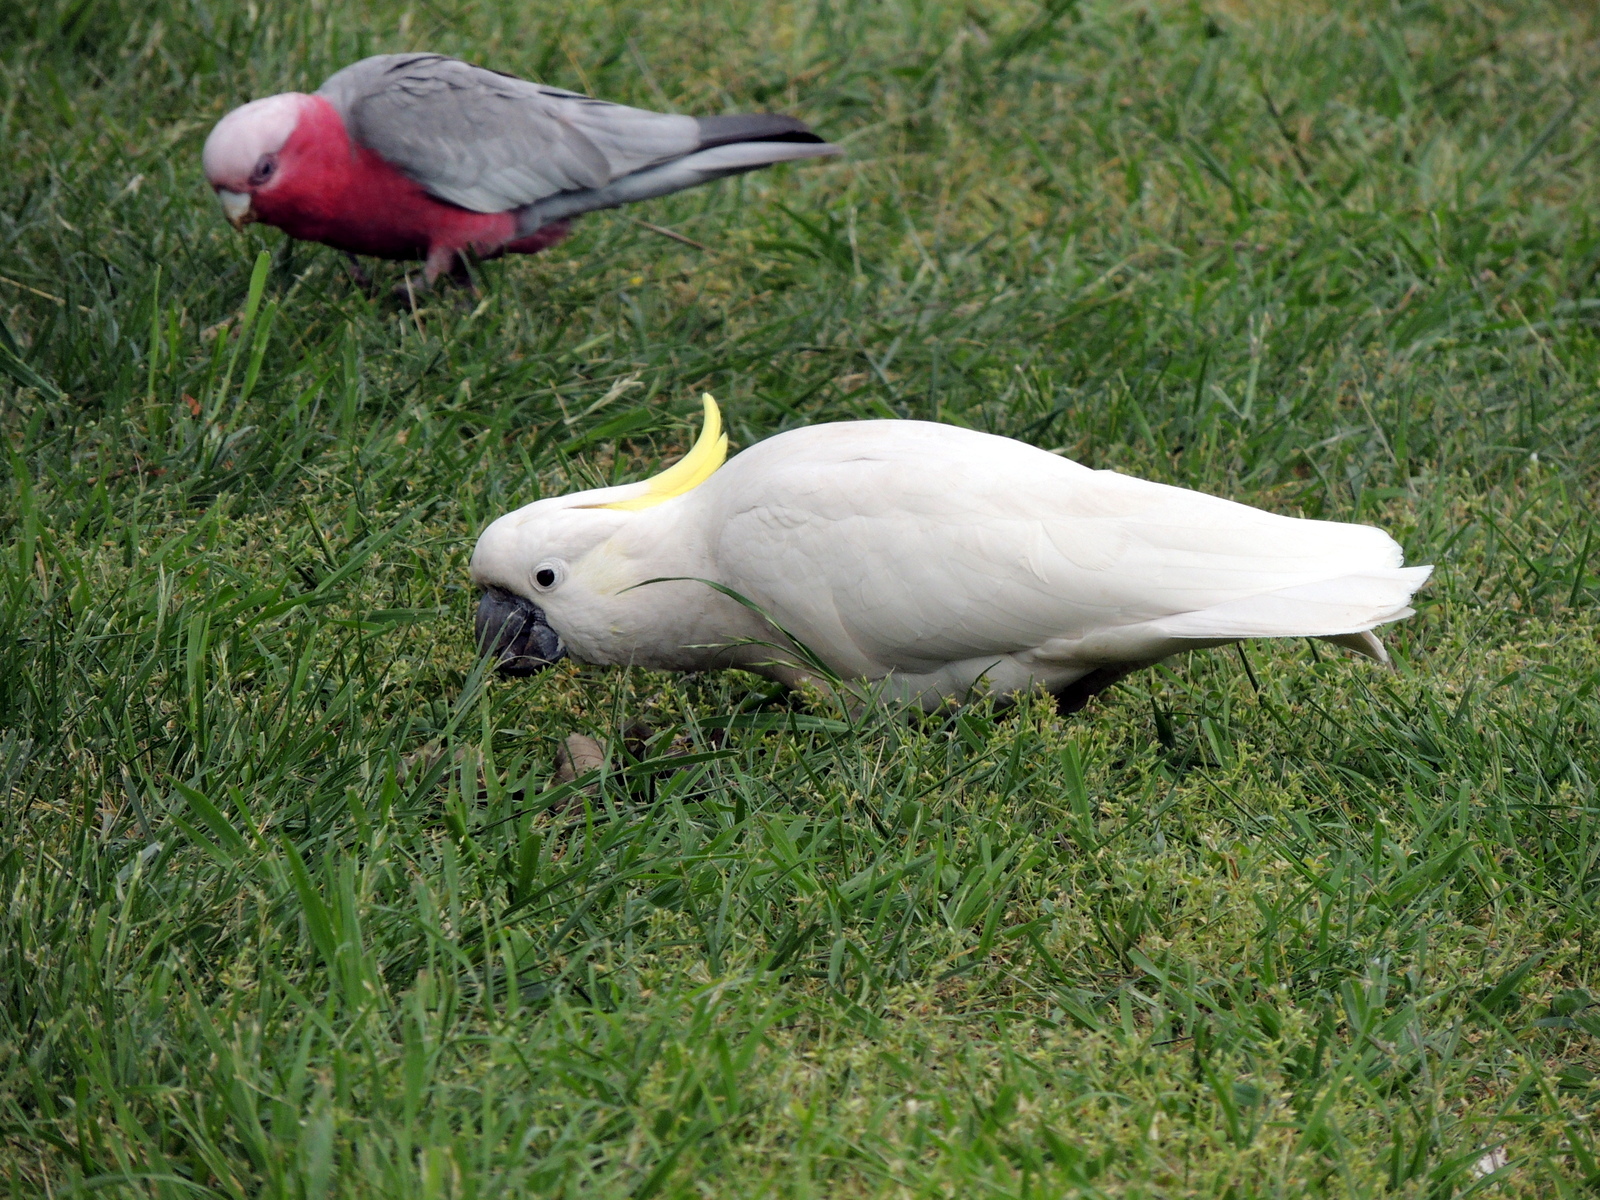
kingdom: Animalia
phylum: Chordata
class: Aves
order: Psittaciformes
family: Psittacidae
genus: Cacatua
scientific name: Cacatua galerita
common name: Sulphur-crested cockatoo
